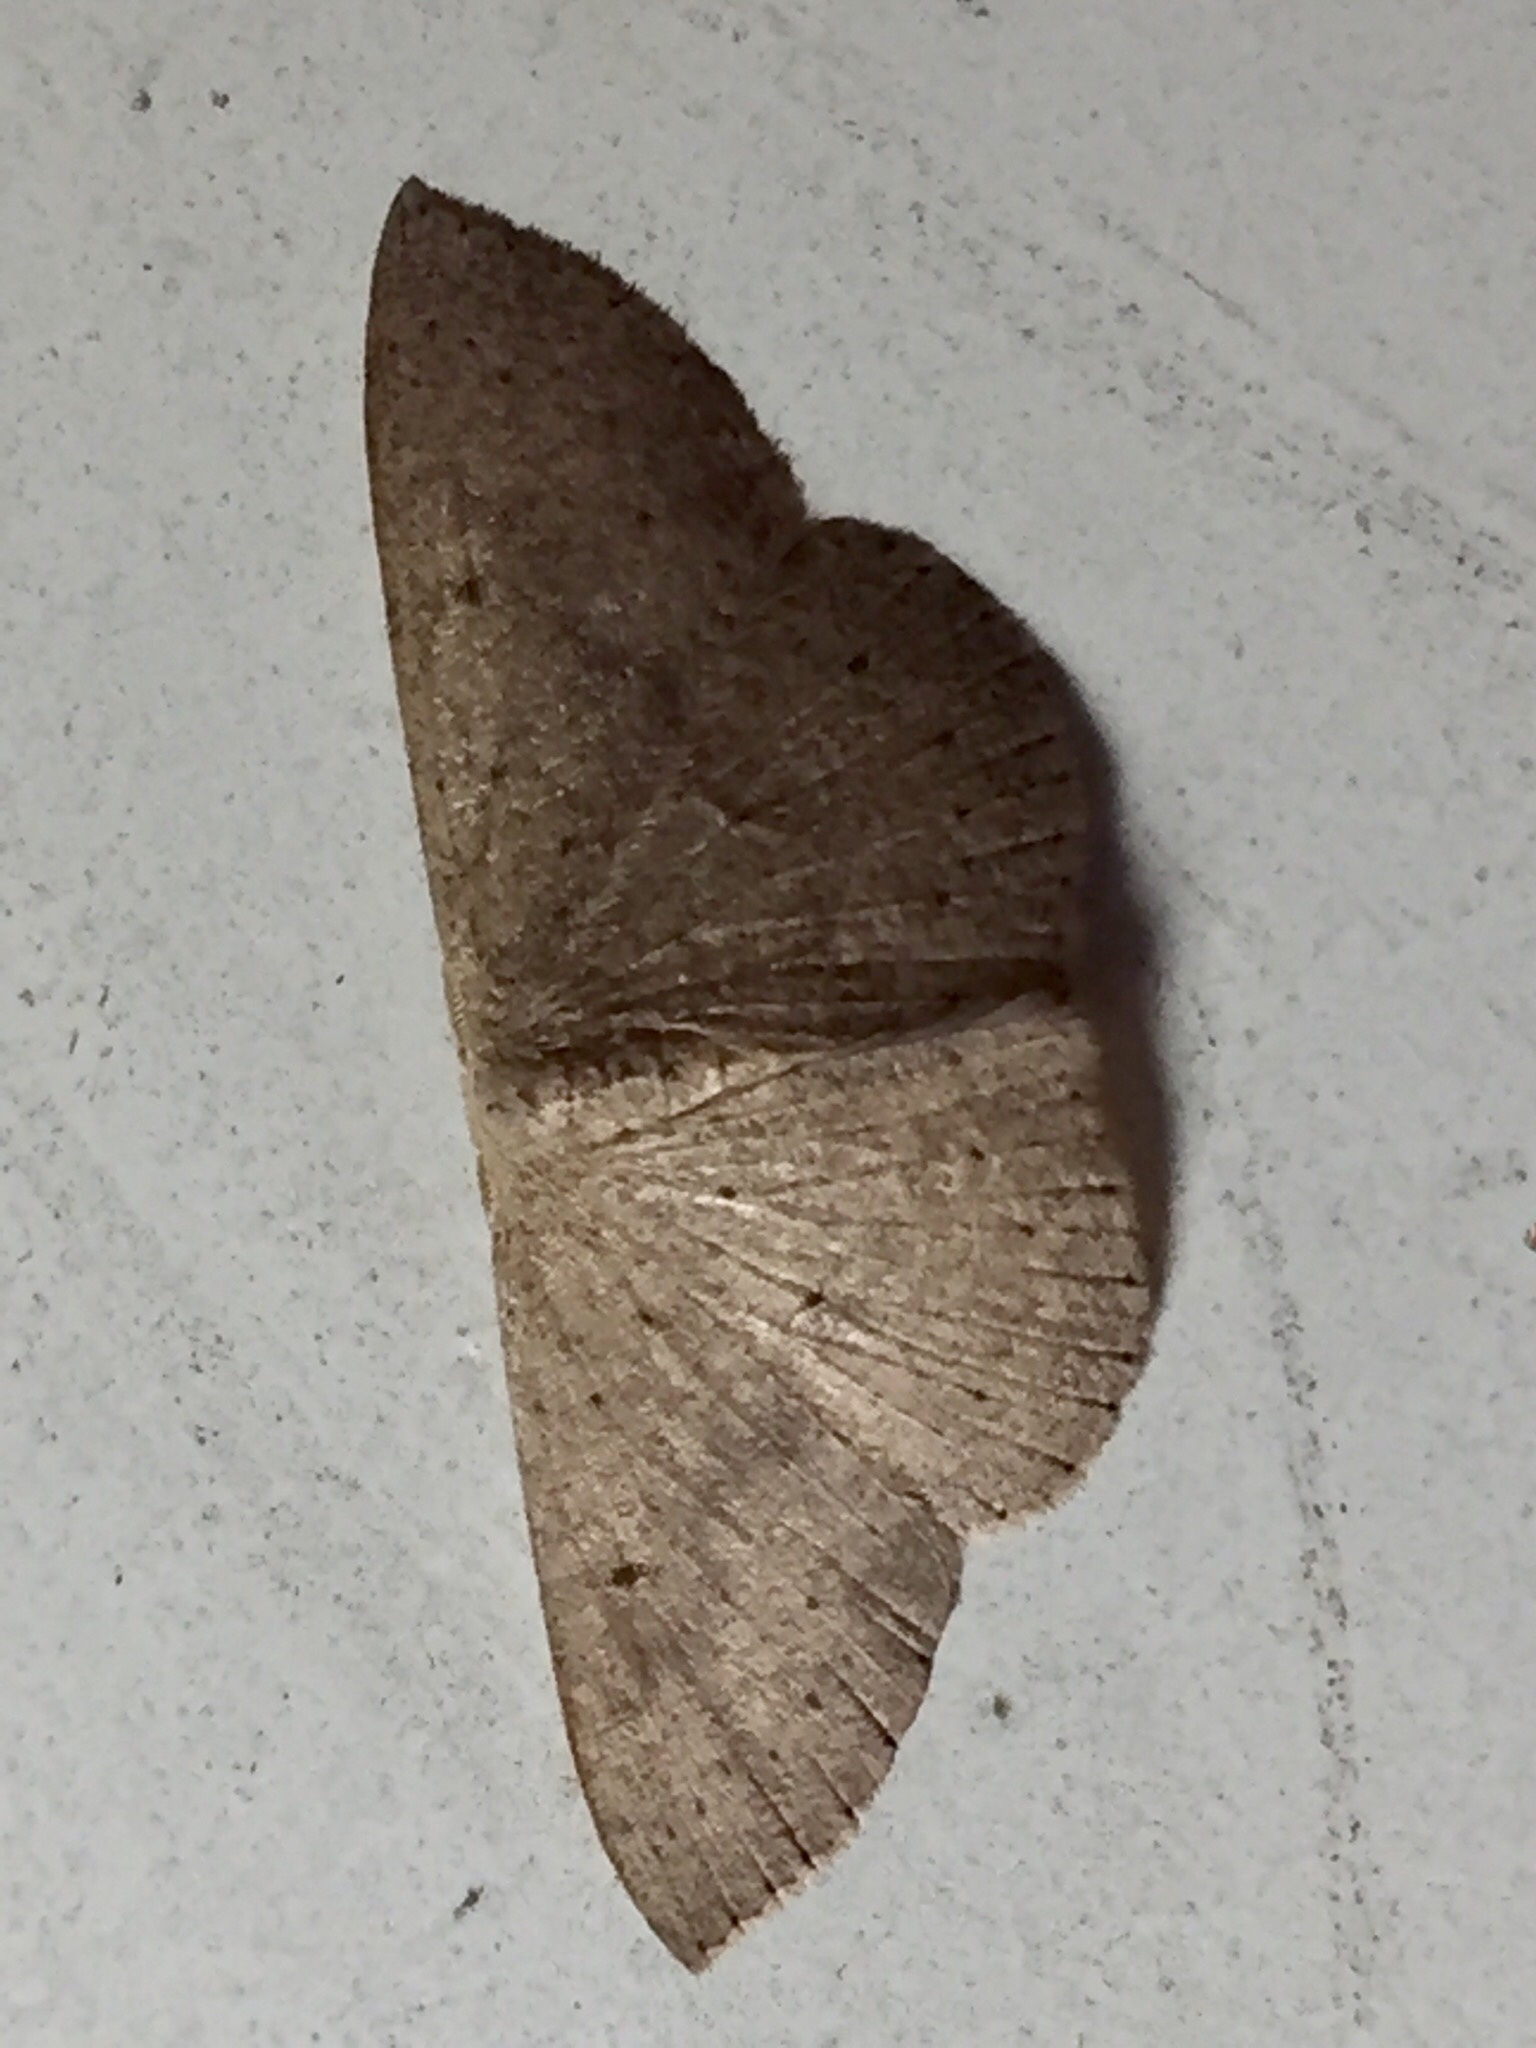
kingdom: Animalia
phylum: Arthropoda
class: Insecta
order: Lepidoptera
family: Geometridae
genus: Cyclophora
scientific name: Cyclophora obstataria
